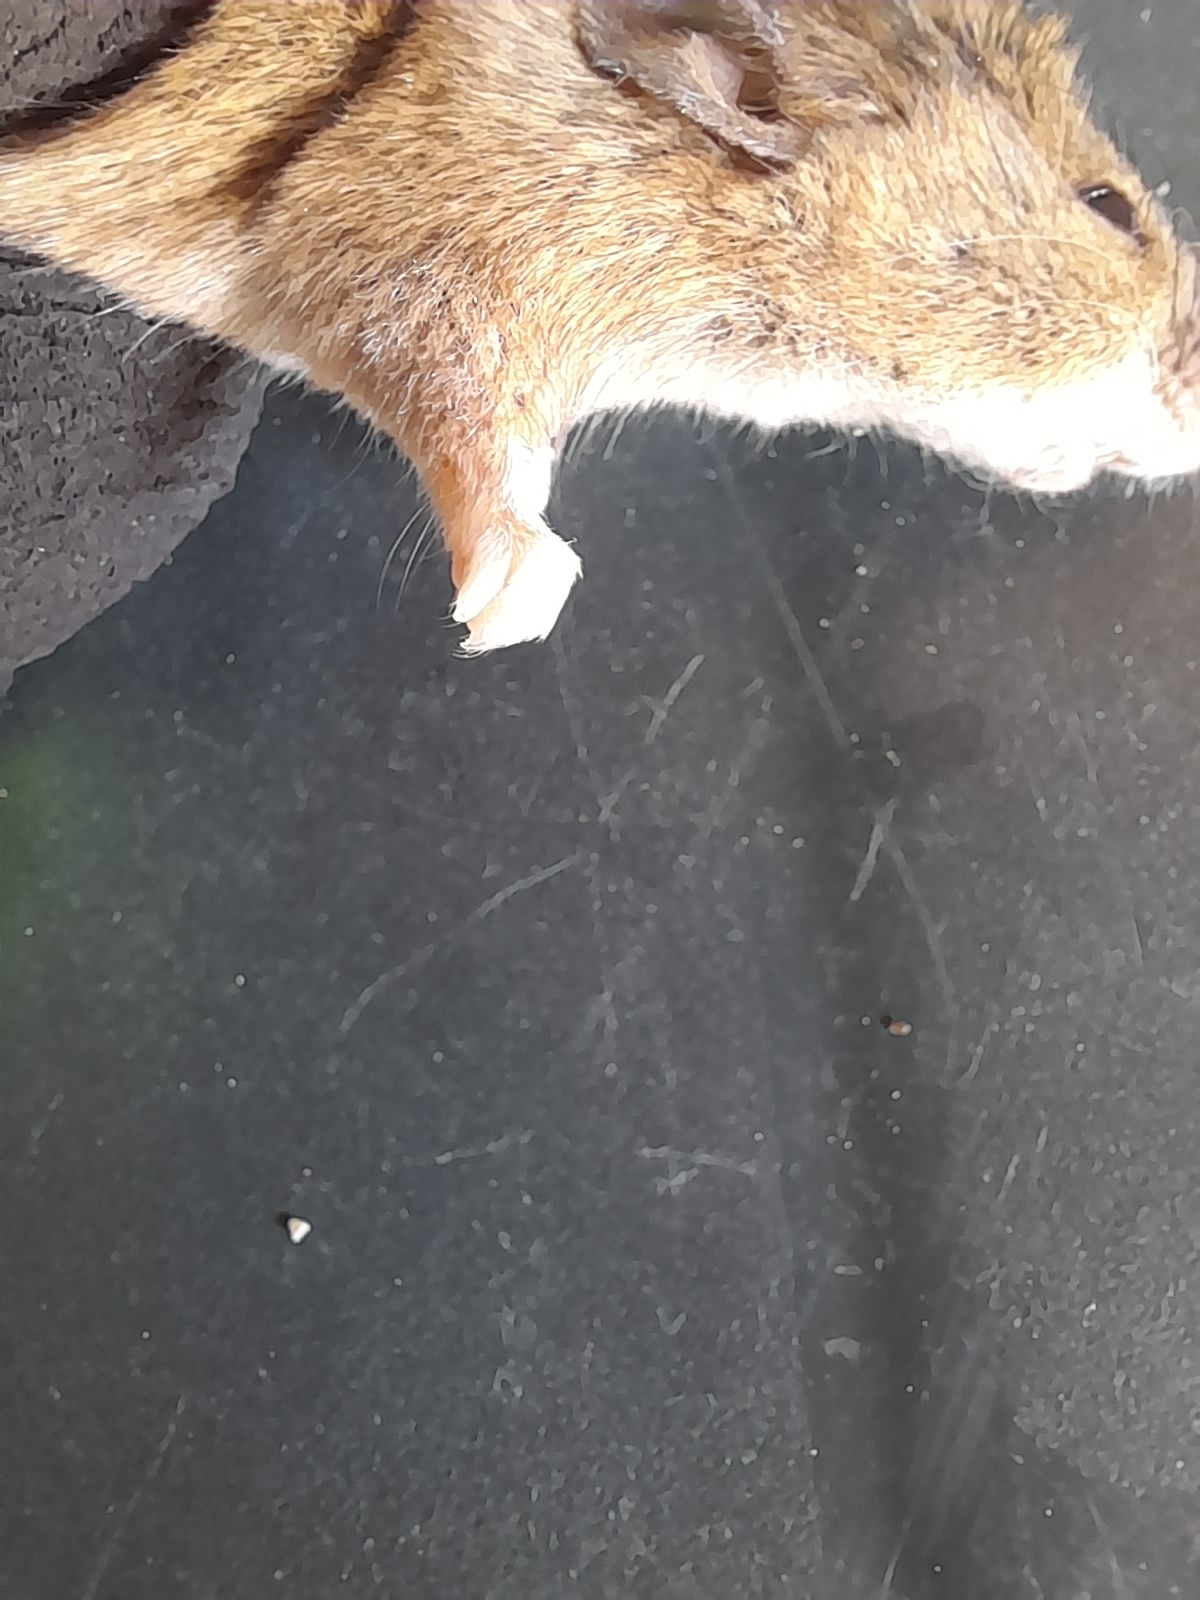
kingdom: Animalia
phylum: Chordata
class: Mammalia
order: Rodentia
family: Muridae
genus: Apodemus
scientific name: Apodemus sylvaticus
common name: Wood mouse
